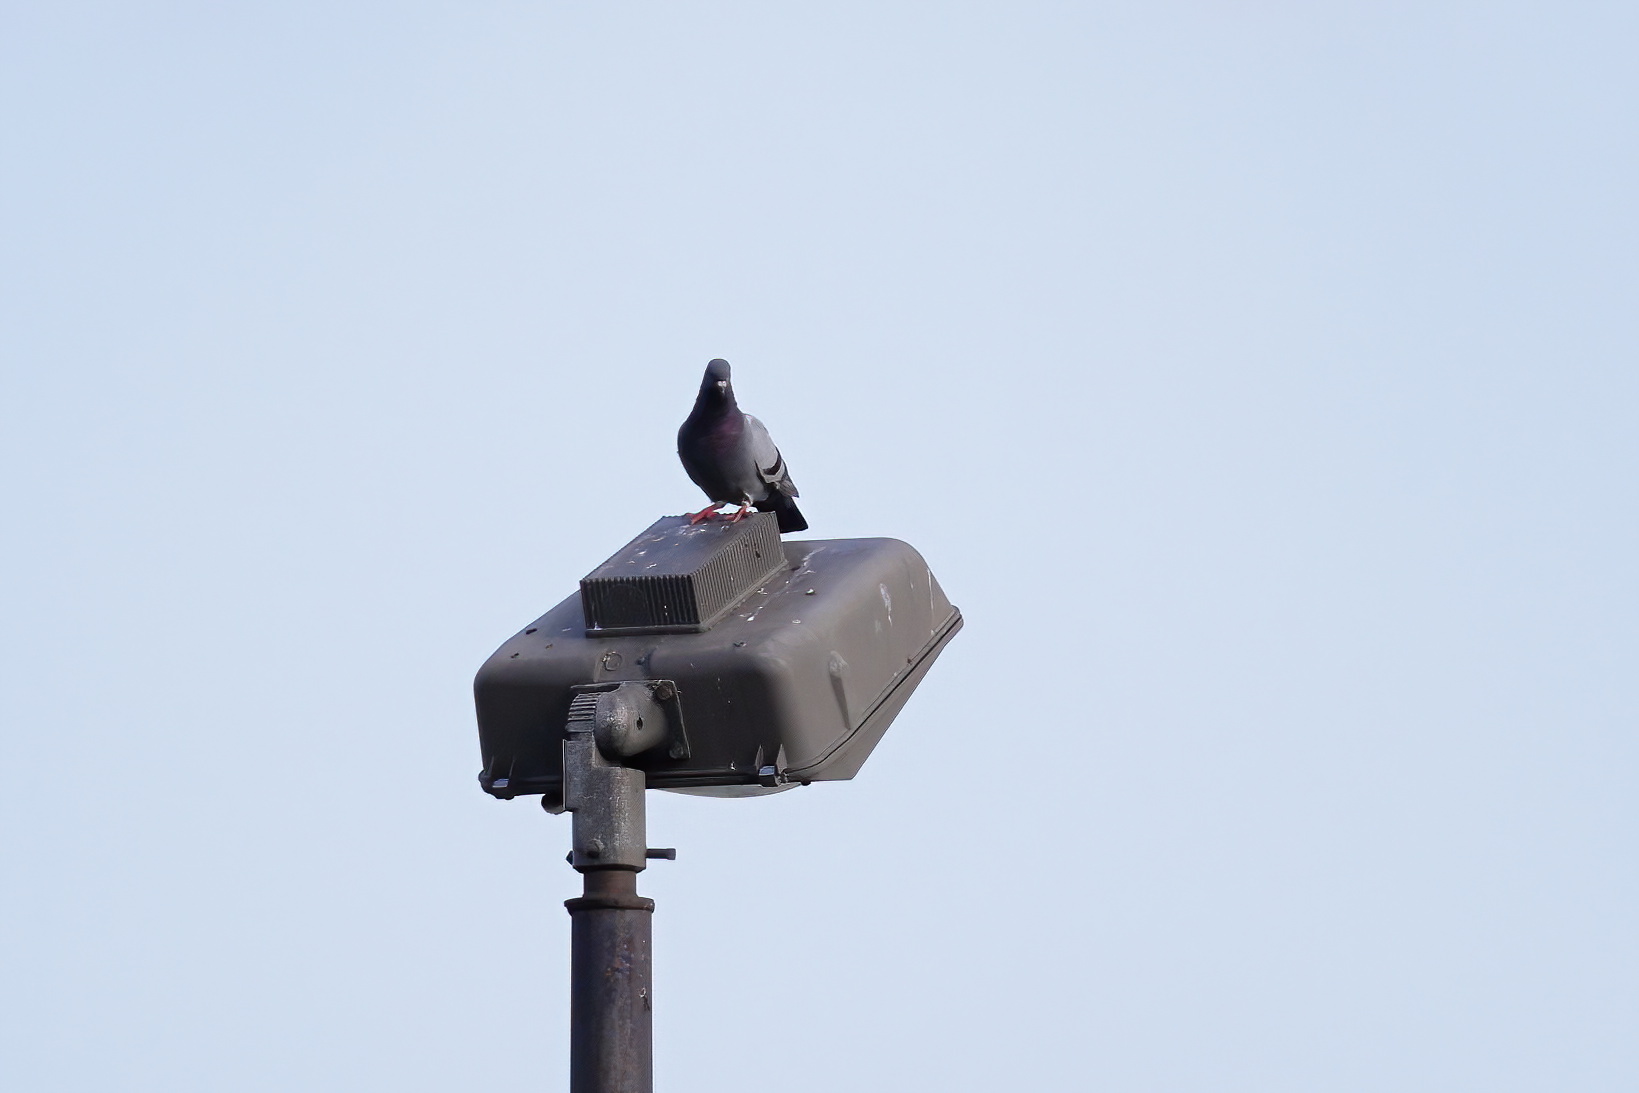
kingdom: Animalia
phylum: Chordata
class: Aves
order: Columbiformes
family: Columbidae
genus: Columba
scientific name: Columba livia
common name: Rock pigeon
